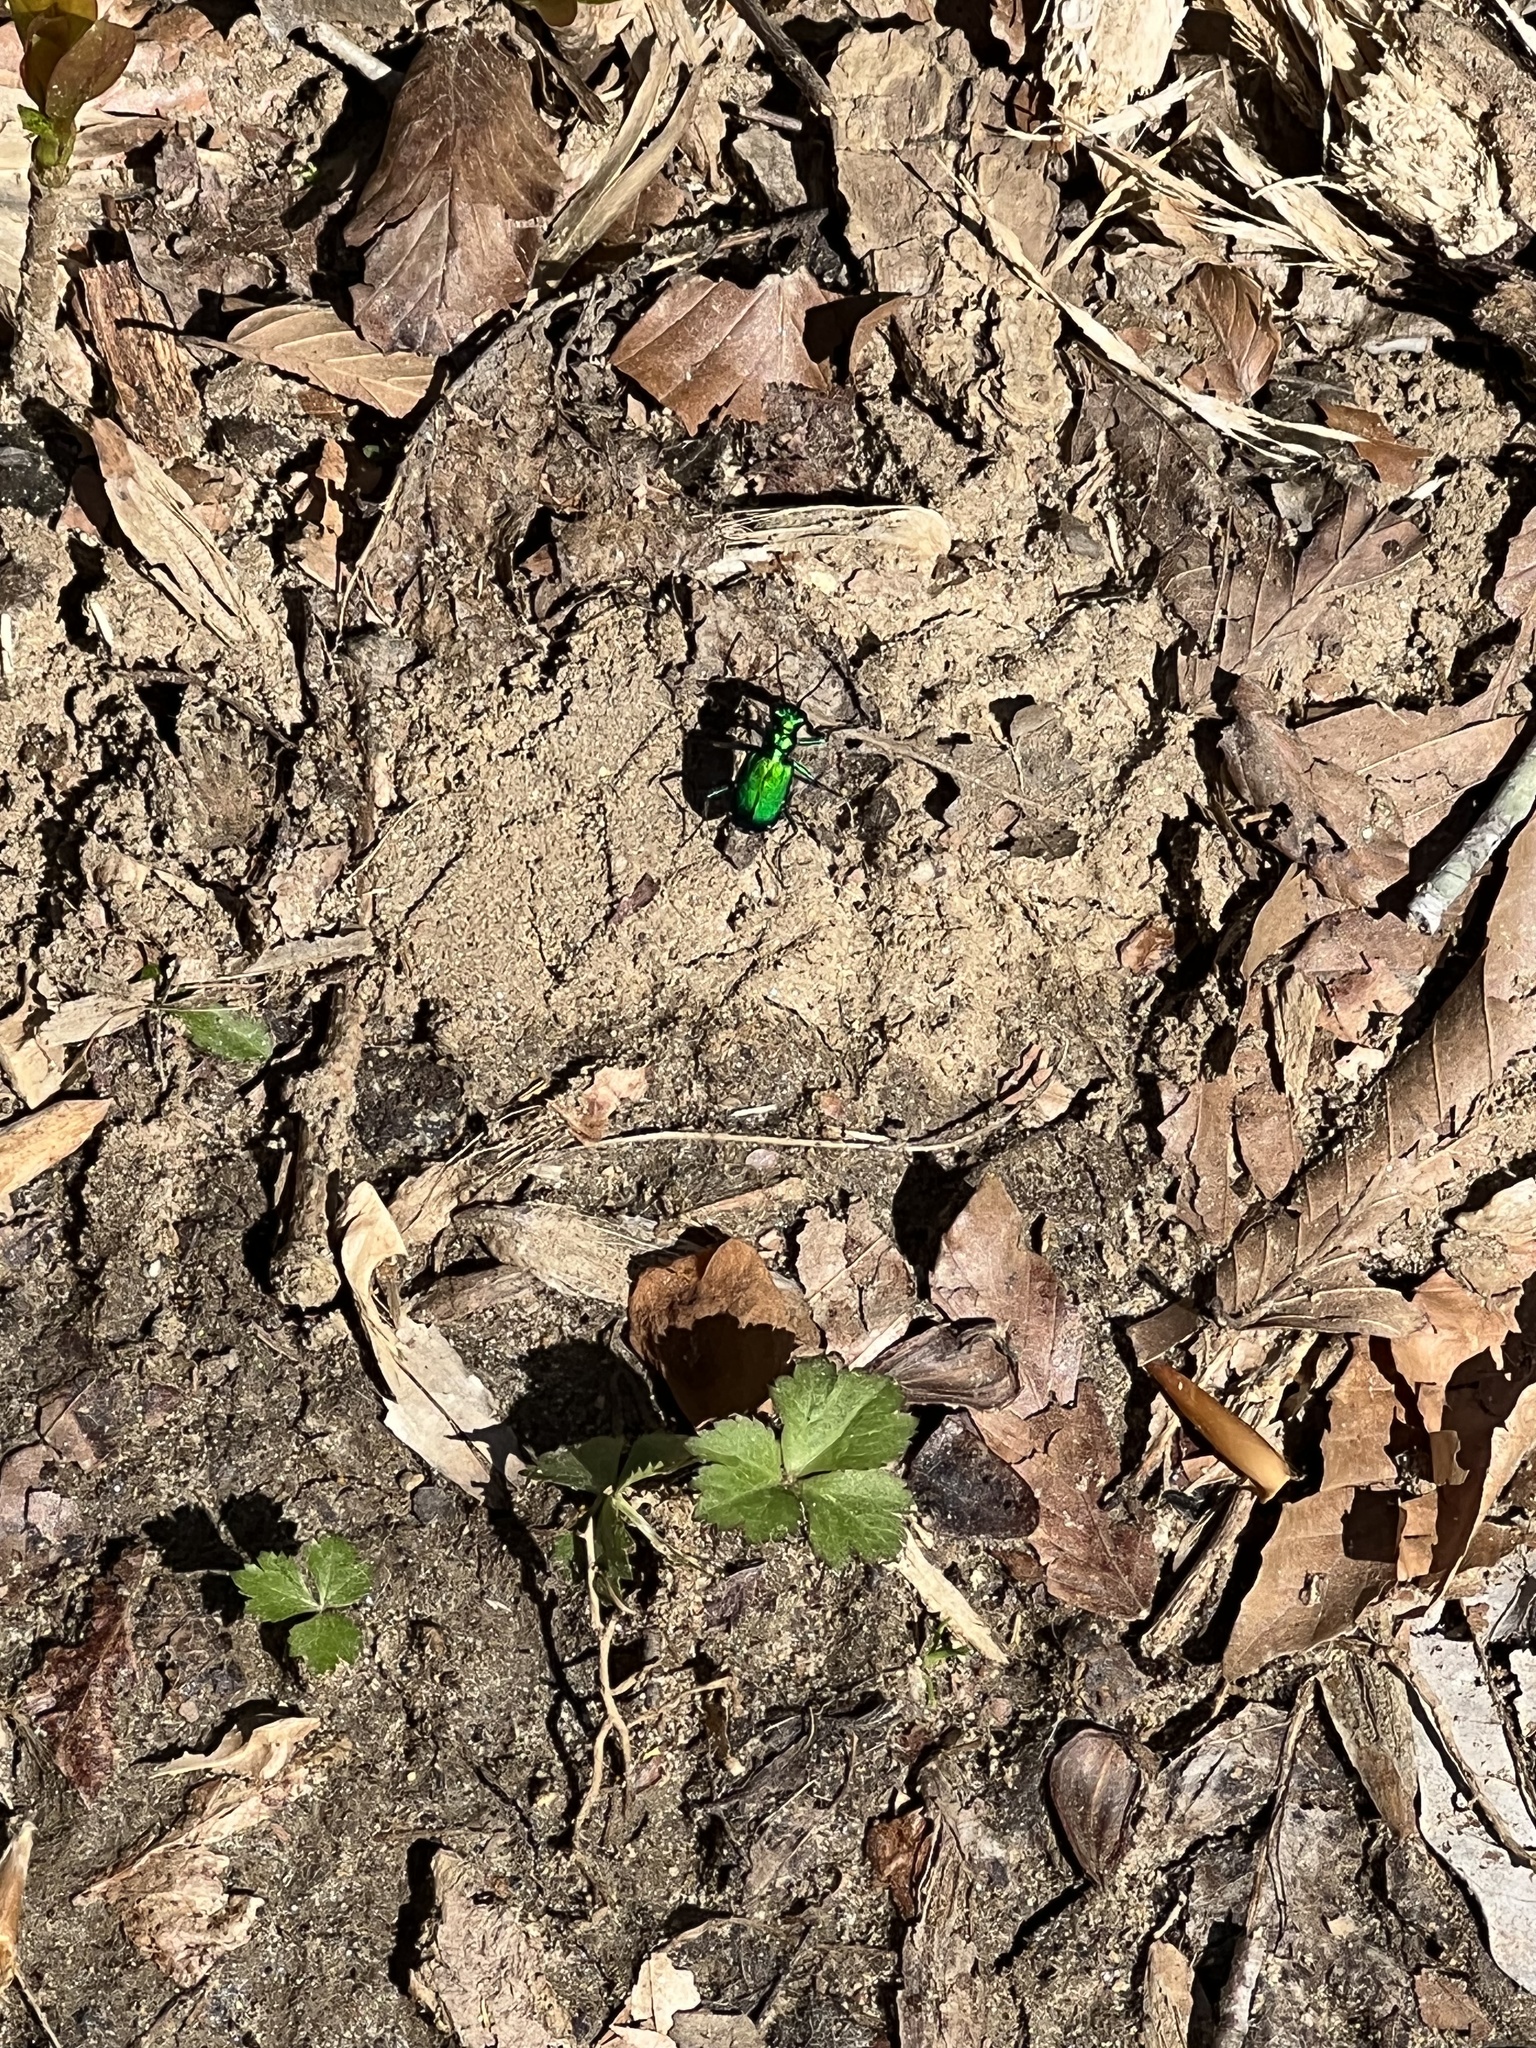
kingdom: Animalia
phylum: Arthropoda
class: Insecta
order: Coleoptera
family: Carabidae
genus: Cicindela
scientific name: Cicindela sexguttata
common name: Six-spotted tiger beetle
